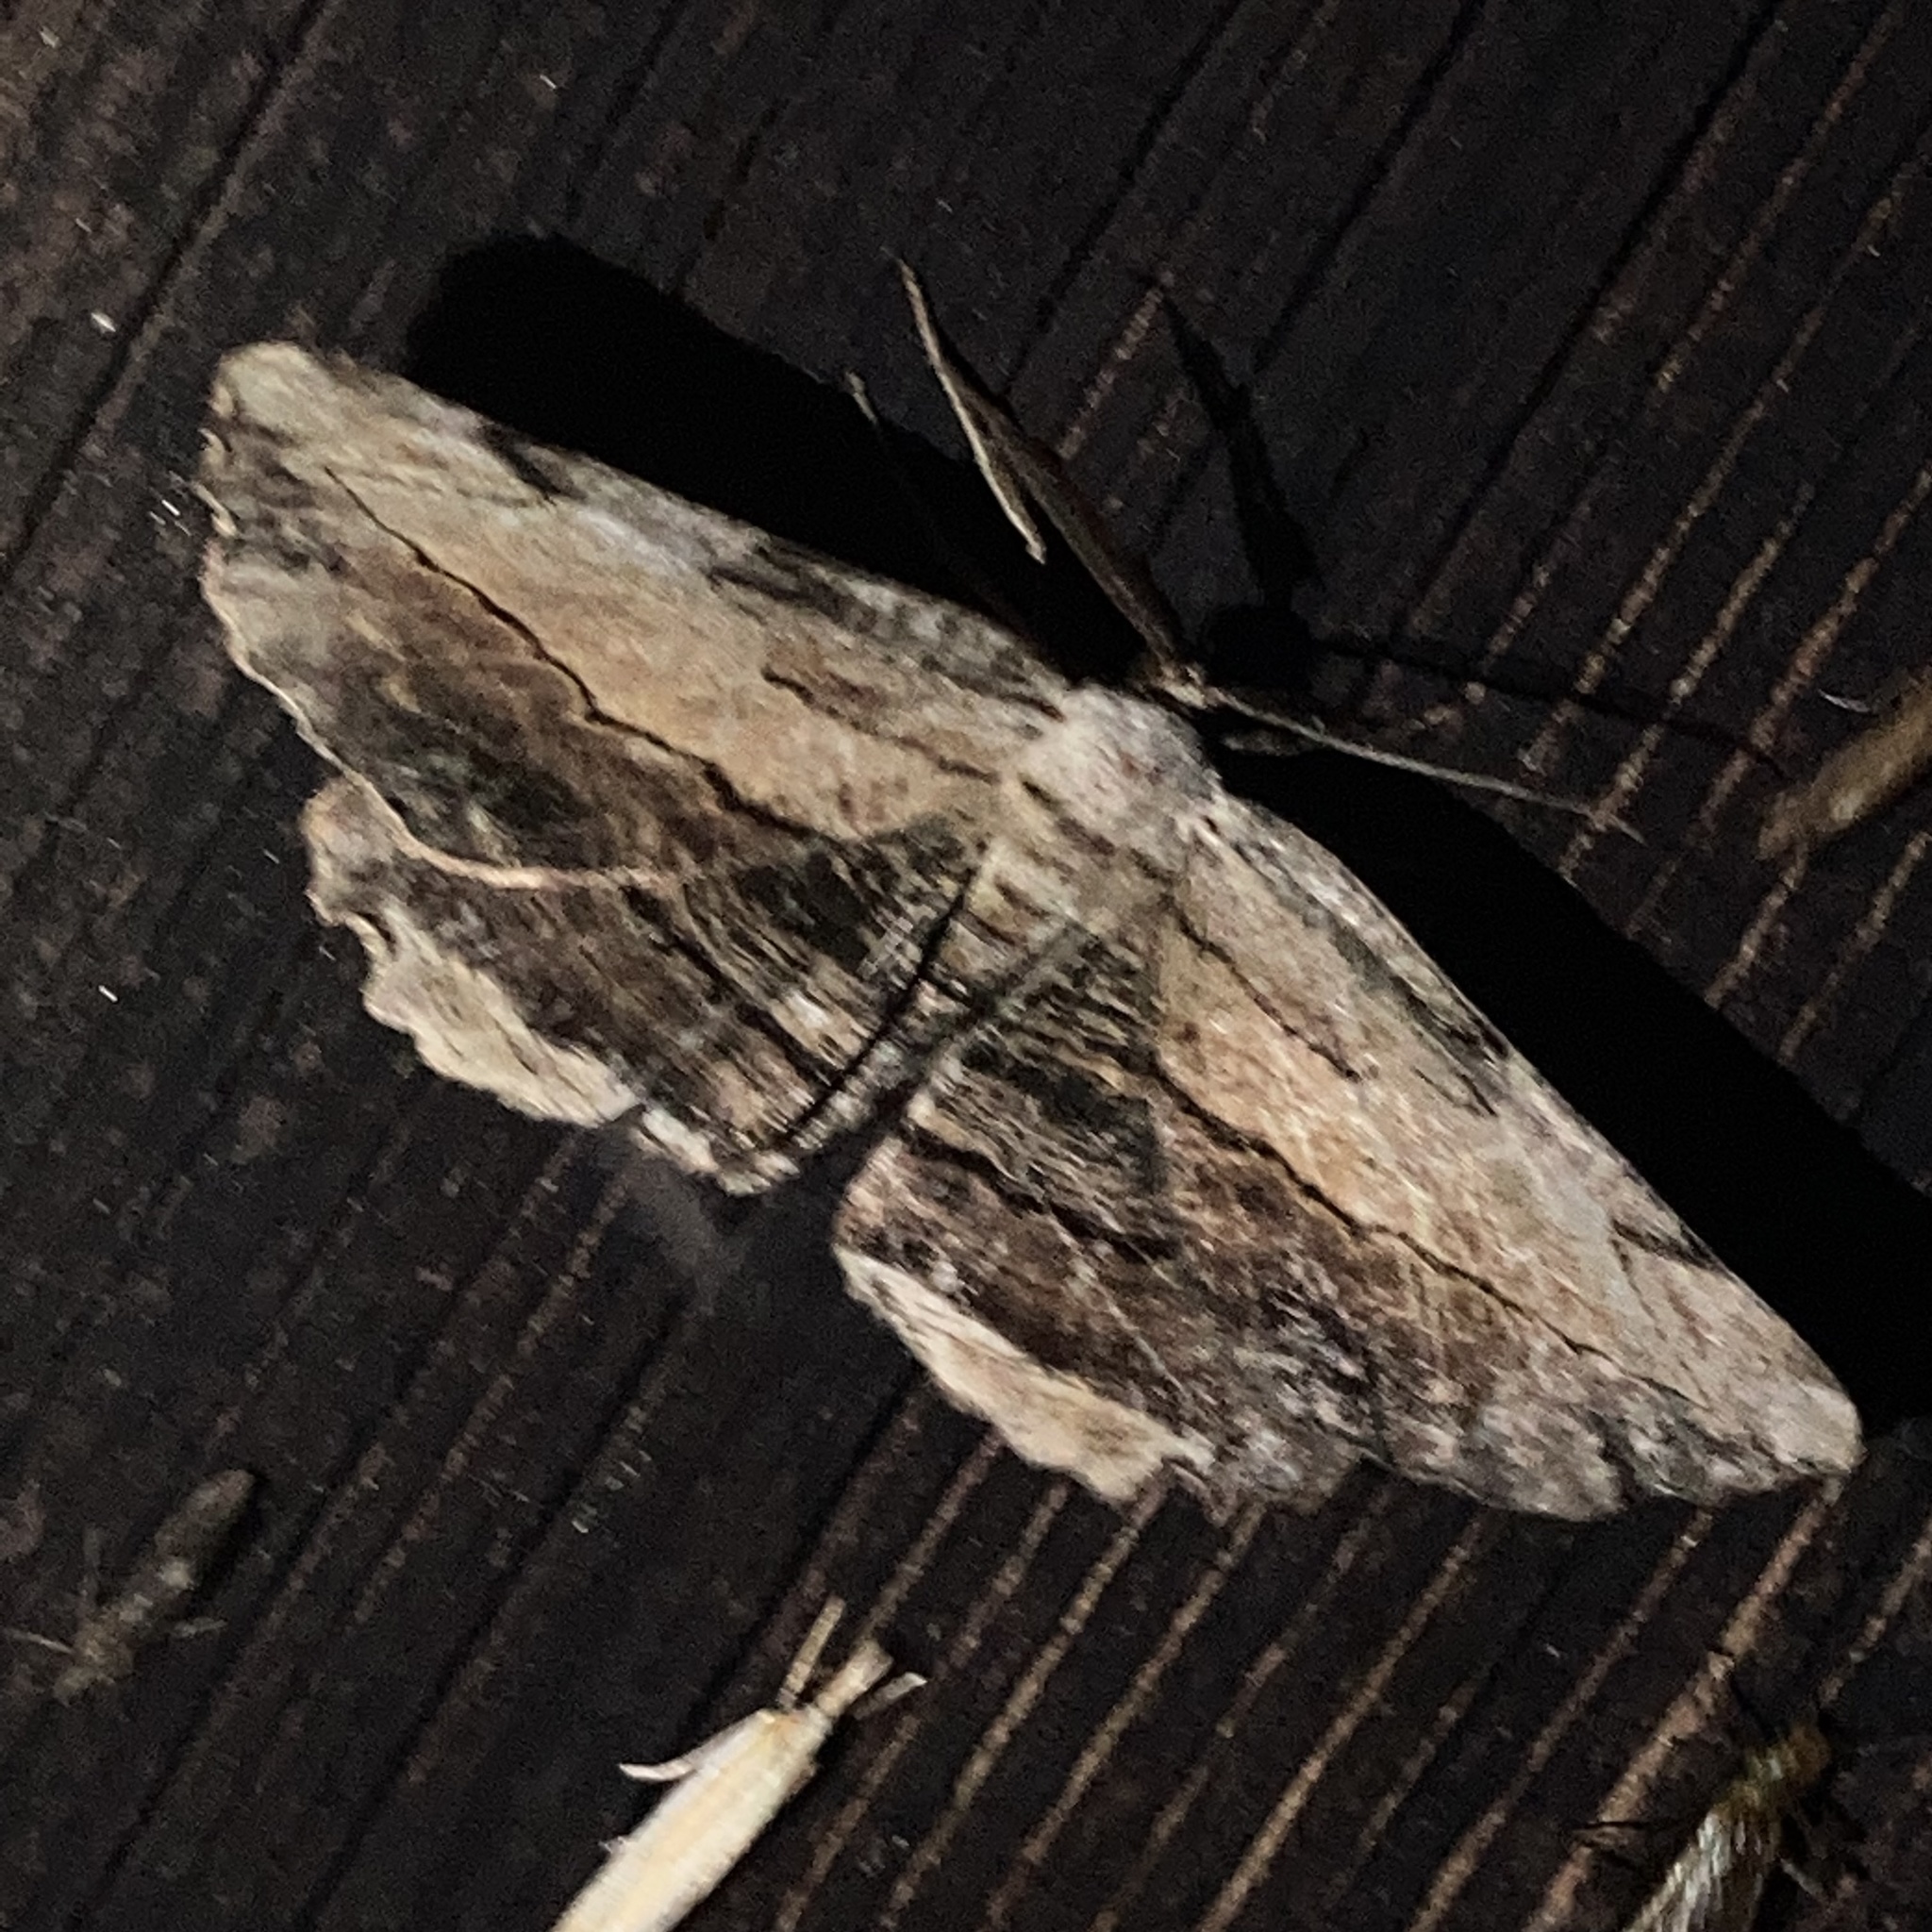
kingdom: Animalia
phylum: Arthropoda
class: Insecta
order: Lepidoptera
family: Geometridae
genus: Lytrosis
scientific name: Lytrosis unitaria
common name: Common lytrosis
